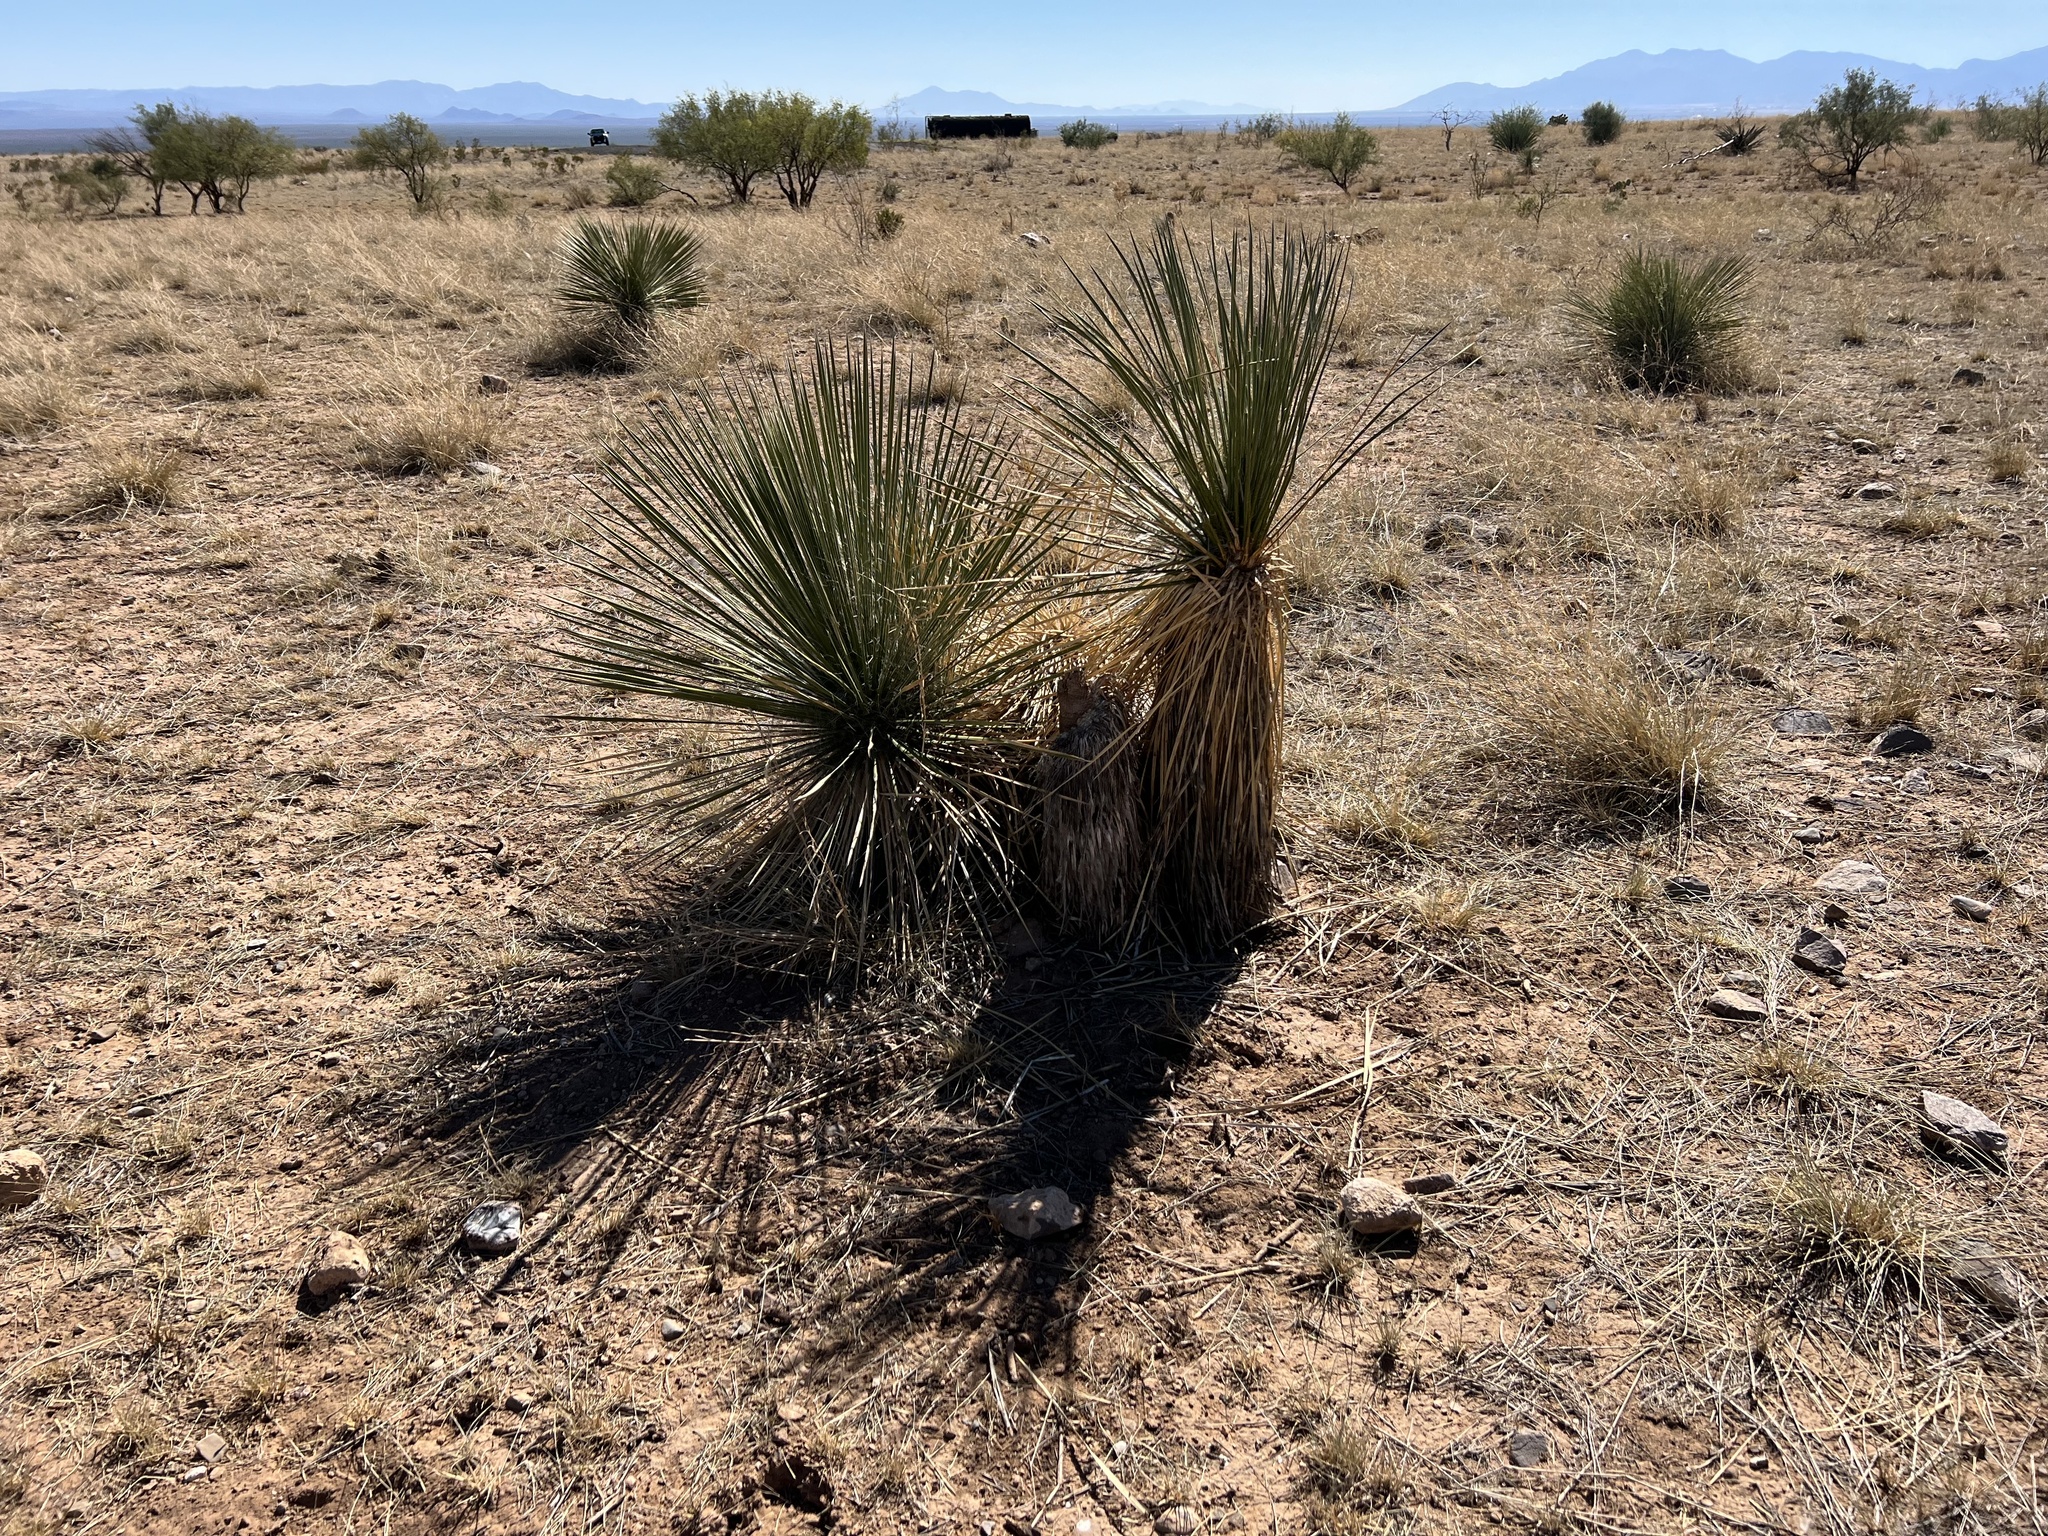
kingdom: Plantae
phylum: Tracheophyta
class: Liliopsida
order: Asparagales
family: Asparagaceae
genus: Yucca
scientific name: Yucca elata
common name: Palmella
